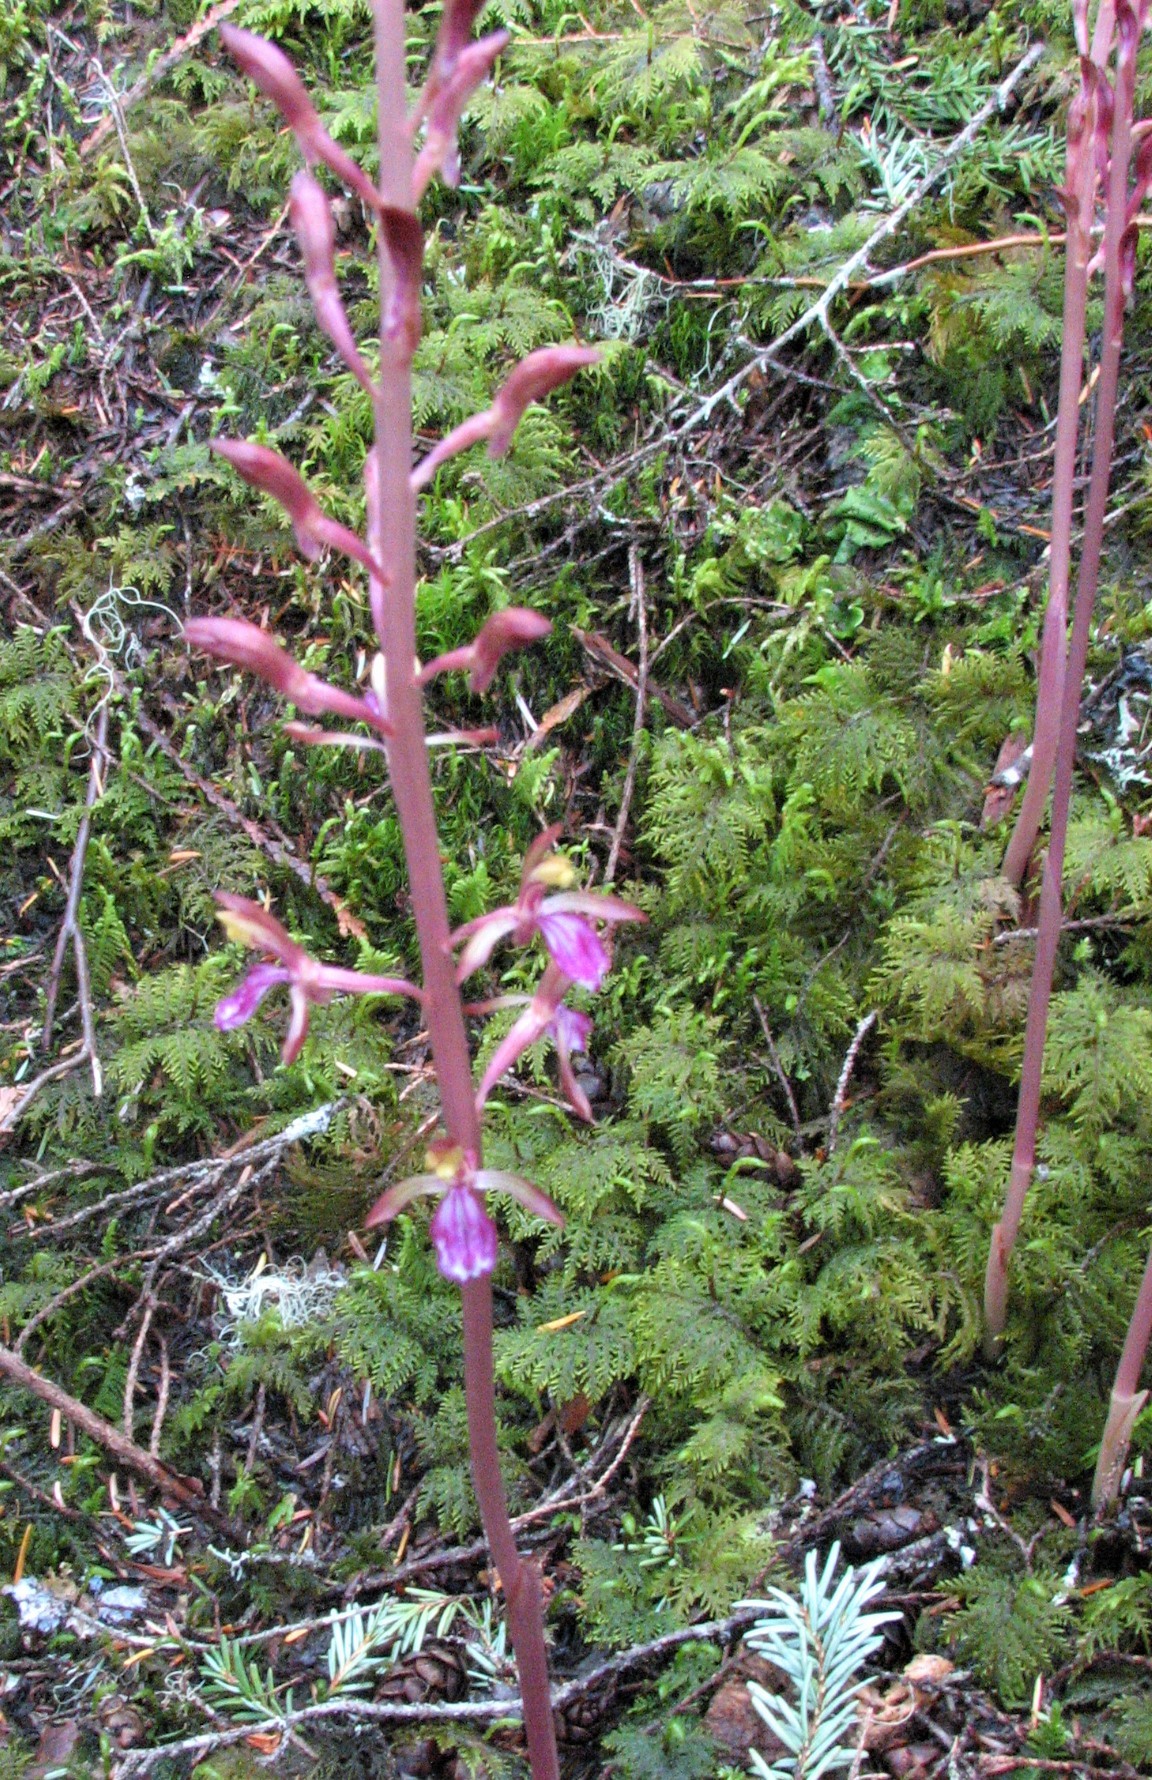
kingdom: Plantae
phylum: Tracheophyta
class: Liliopsida
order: Asparagales
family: Orchidaceae
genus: Corallorhiza
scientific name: Corallorhiza mertensiana
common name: Pacific coralroot
